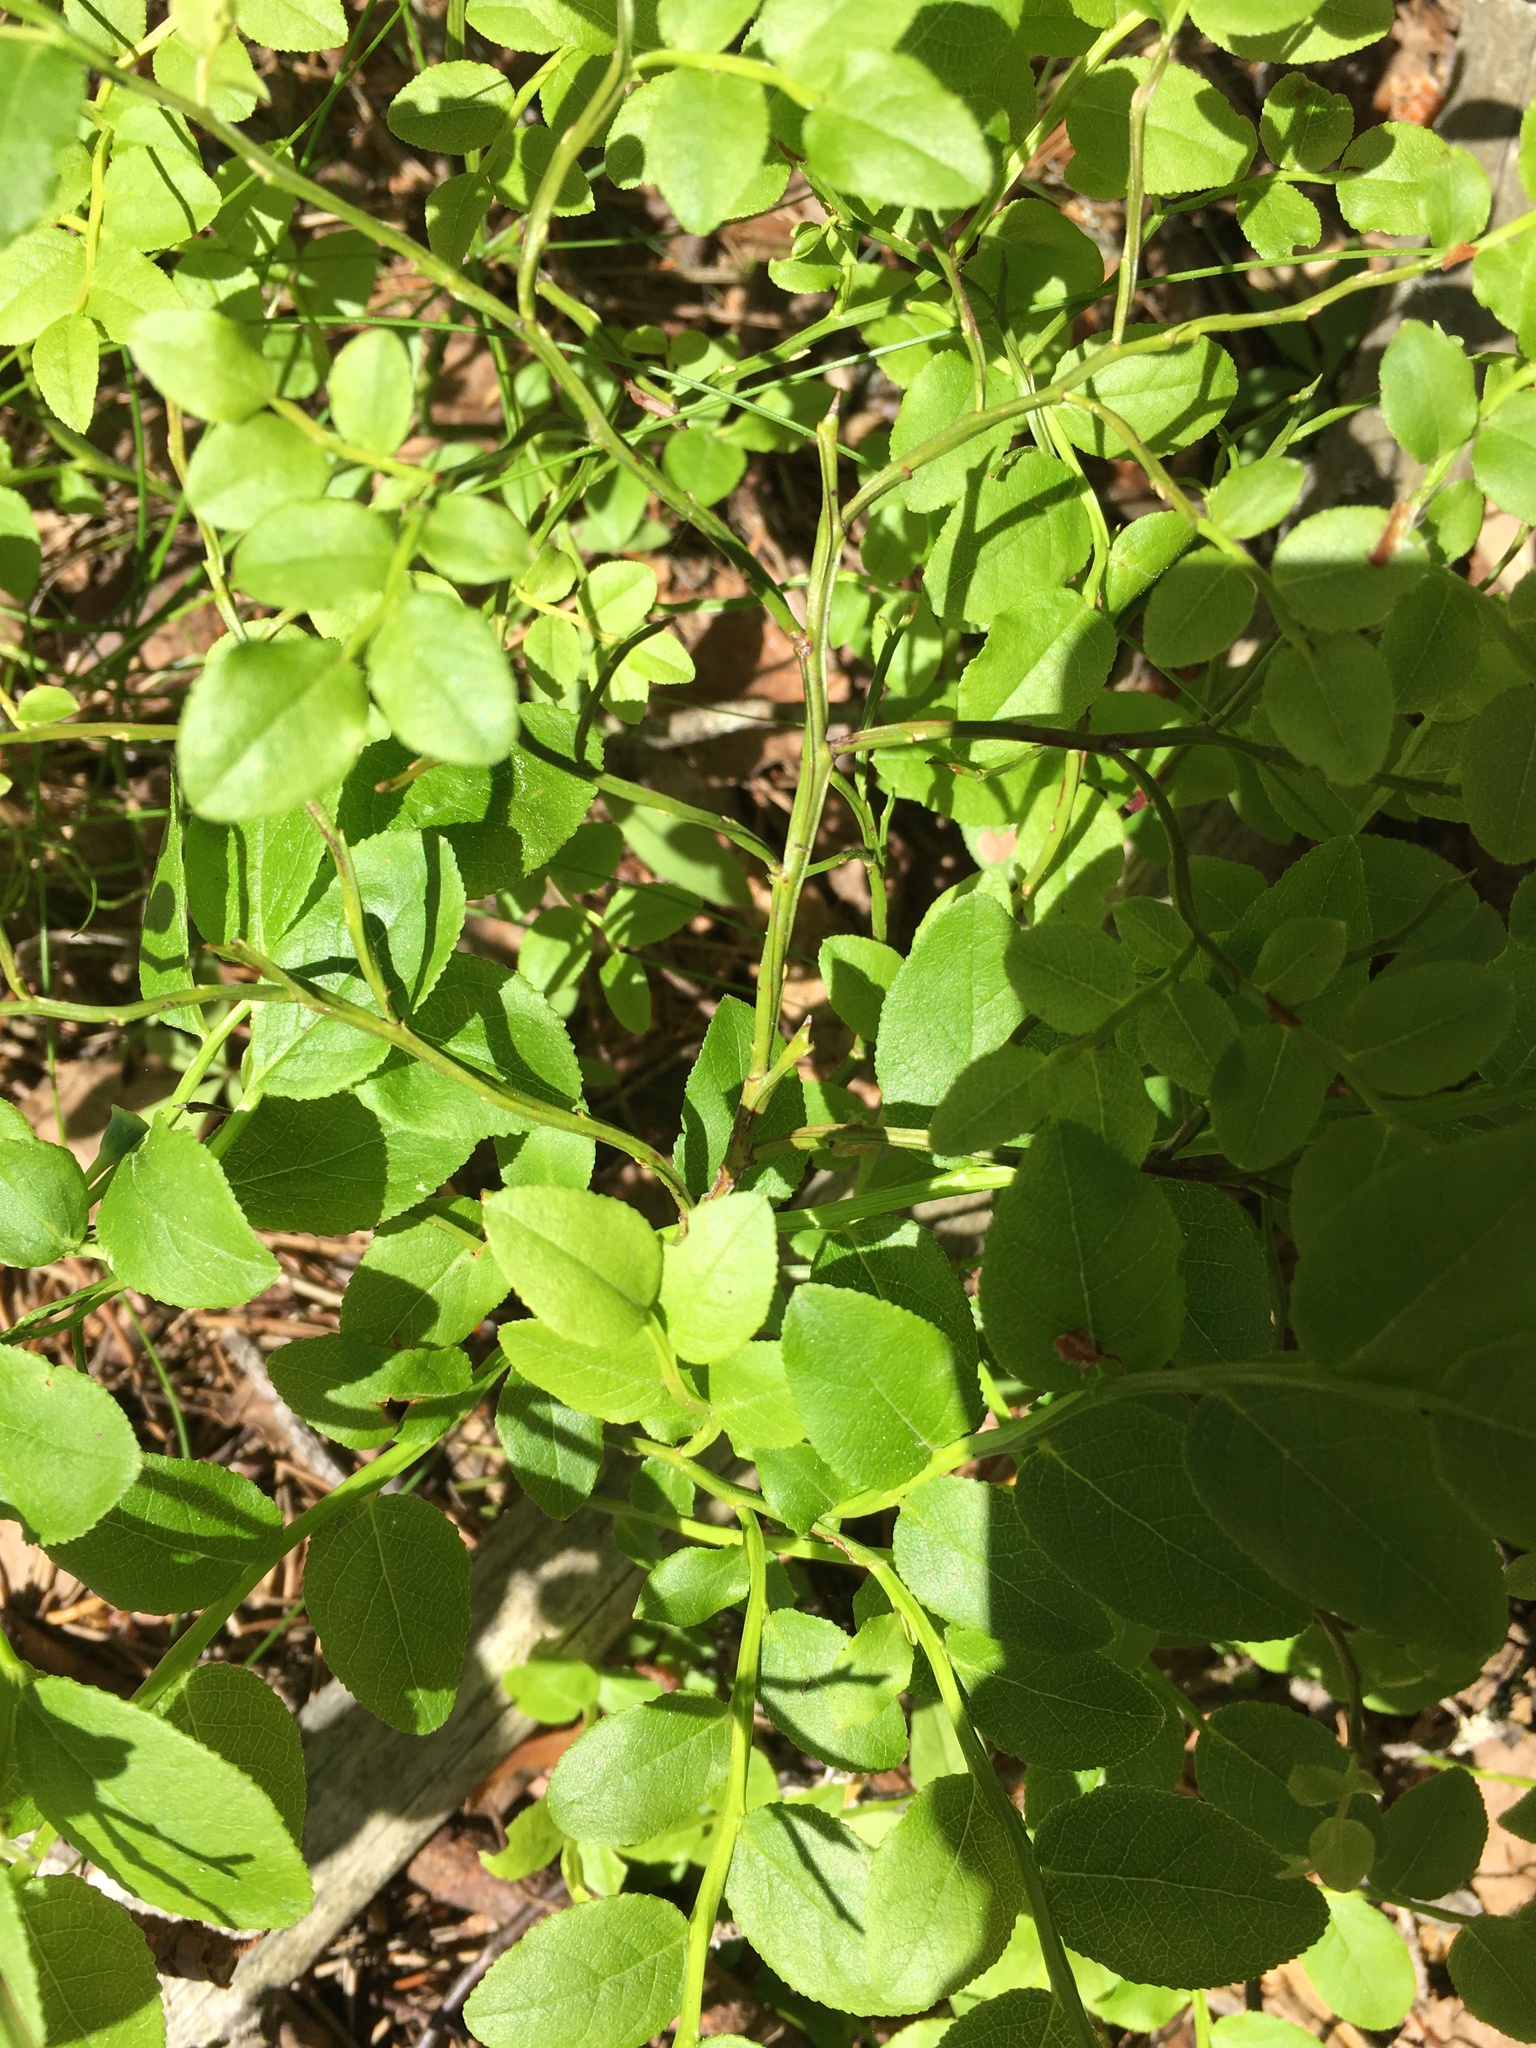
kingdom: Plantae
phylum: Tracheophyta
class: Magnoliopsida
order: Ericales
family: Ericaceae
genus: Vaccinium
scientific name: Vaccinium myrtillus
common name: Bilberry
